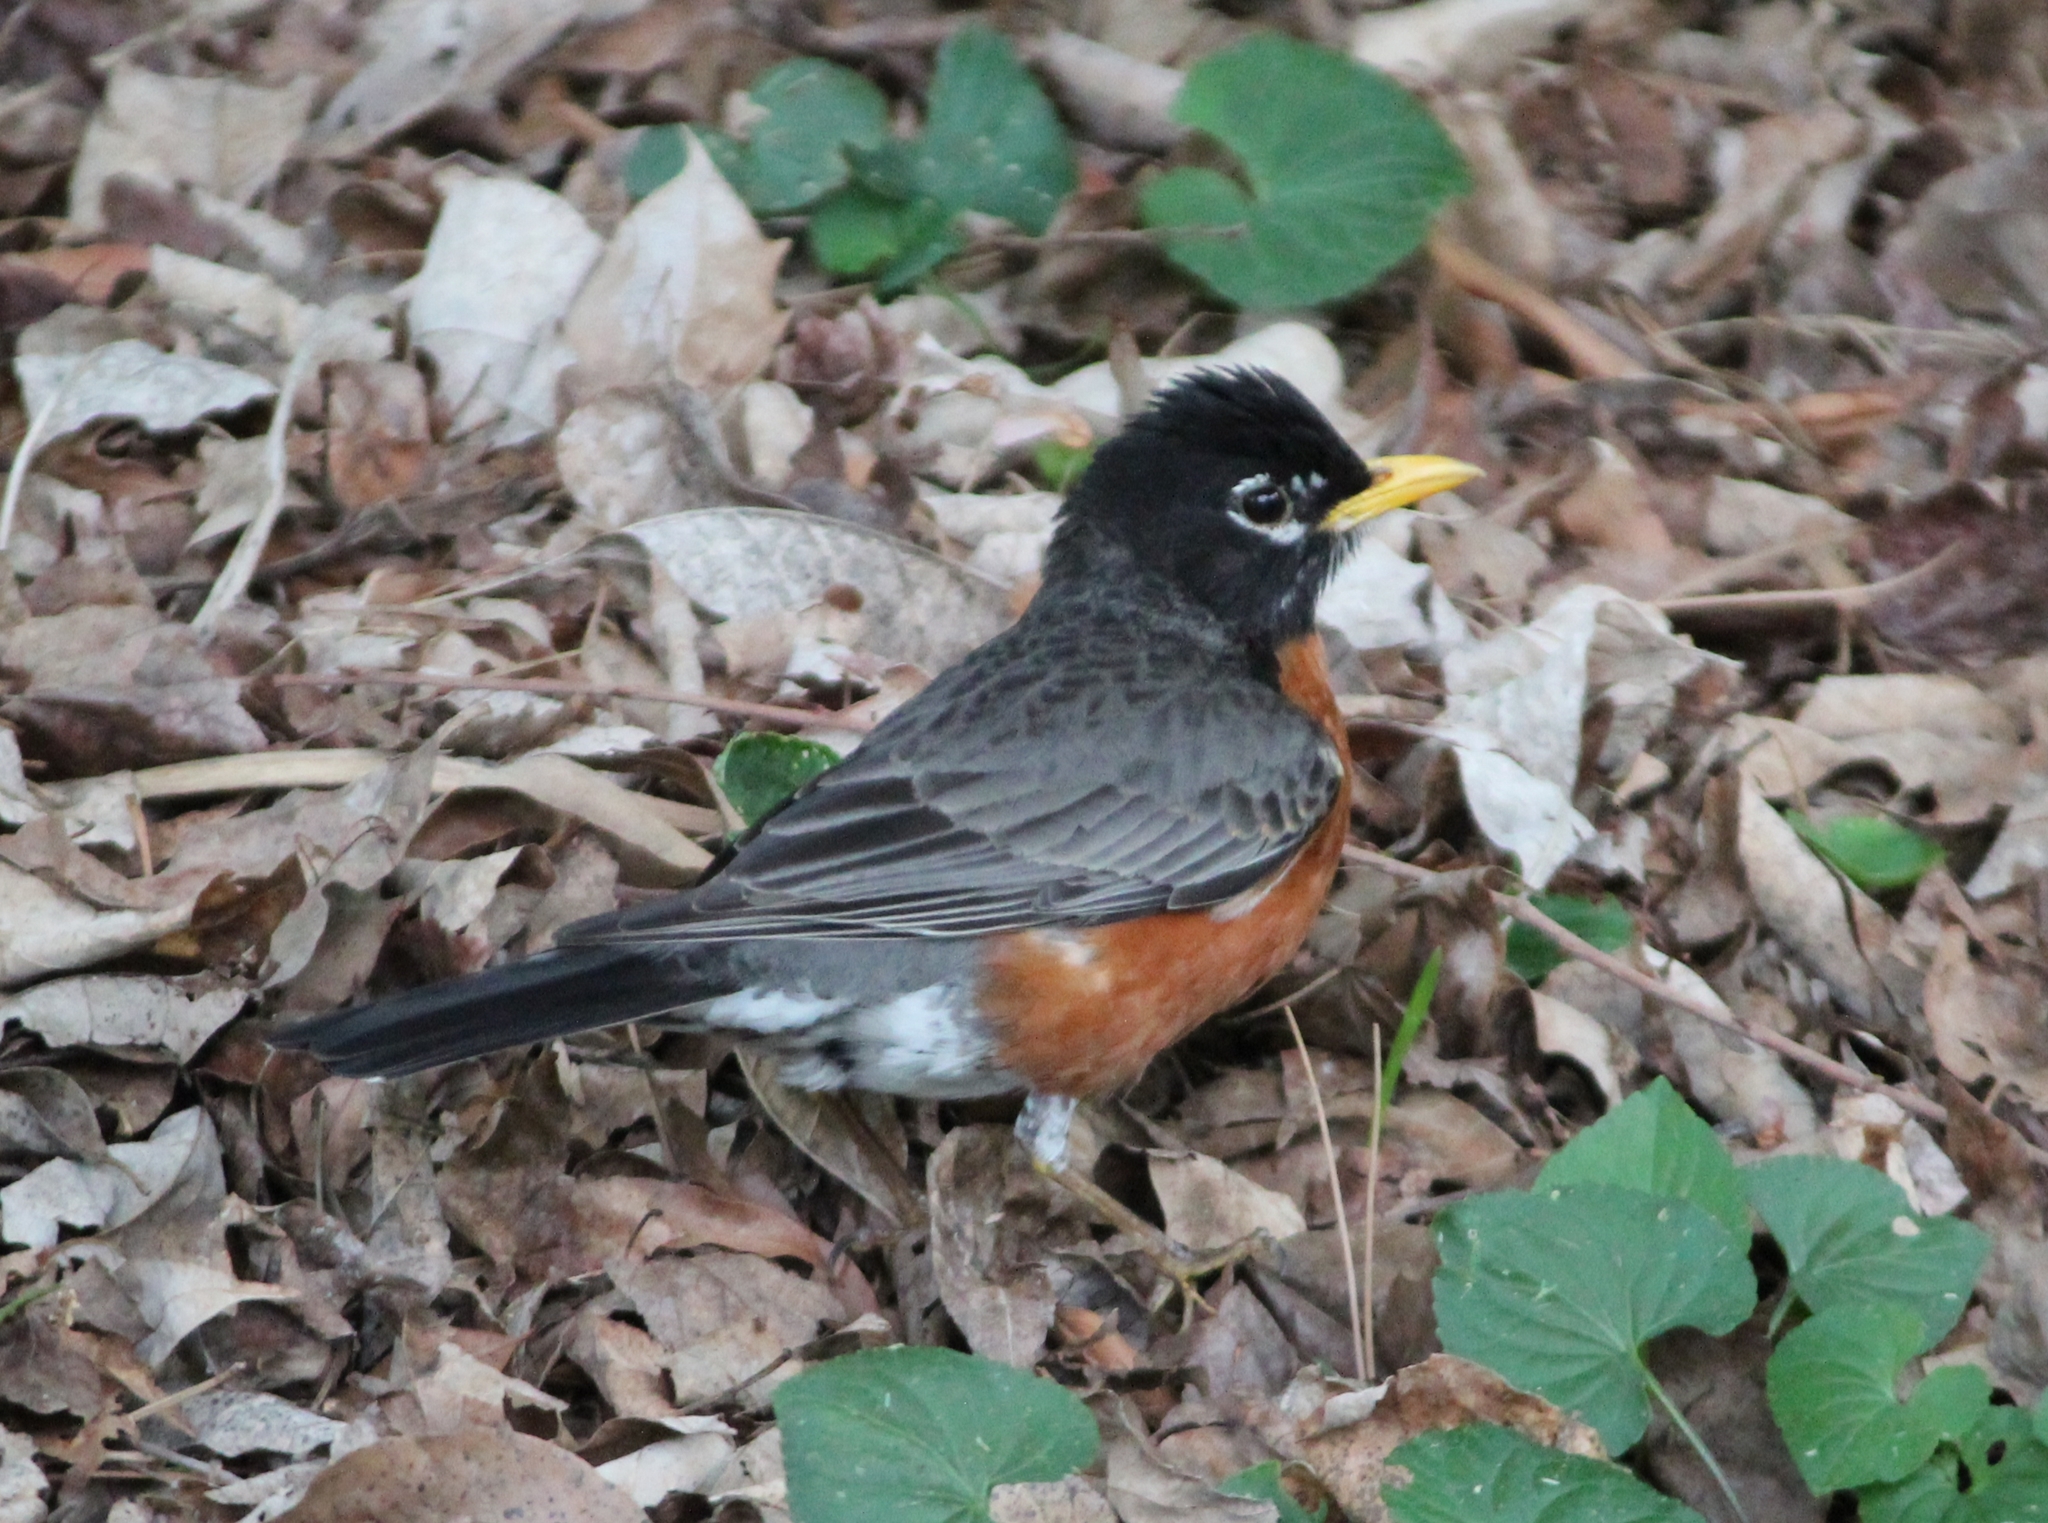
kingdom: Animalia
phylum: Chordata
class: Aves
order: Passeriformes
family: Turdidae
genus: Turdus
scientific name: Turdus migratorius
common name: American robin
